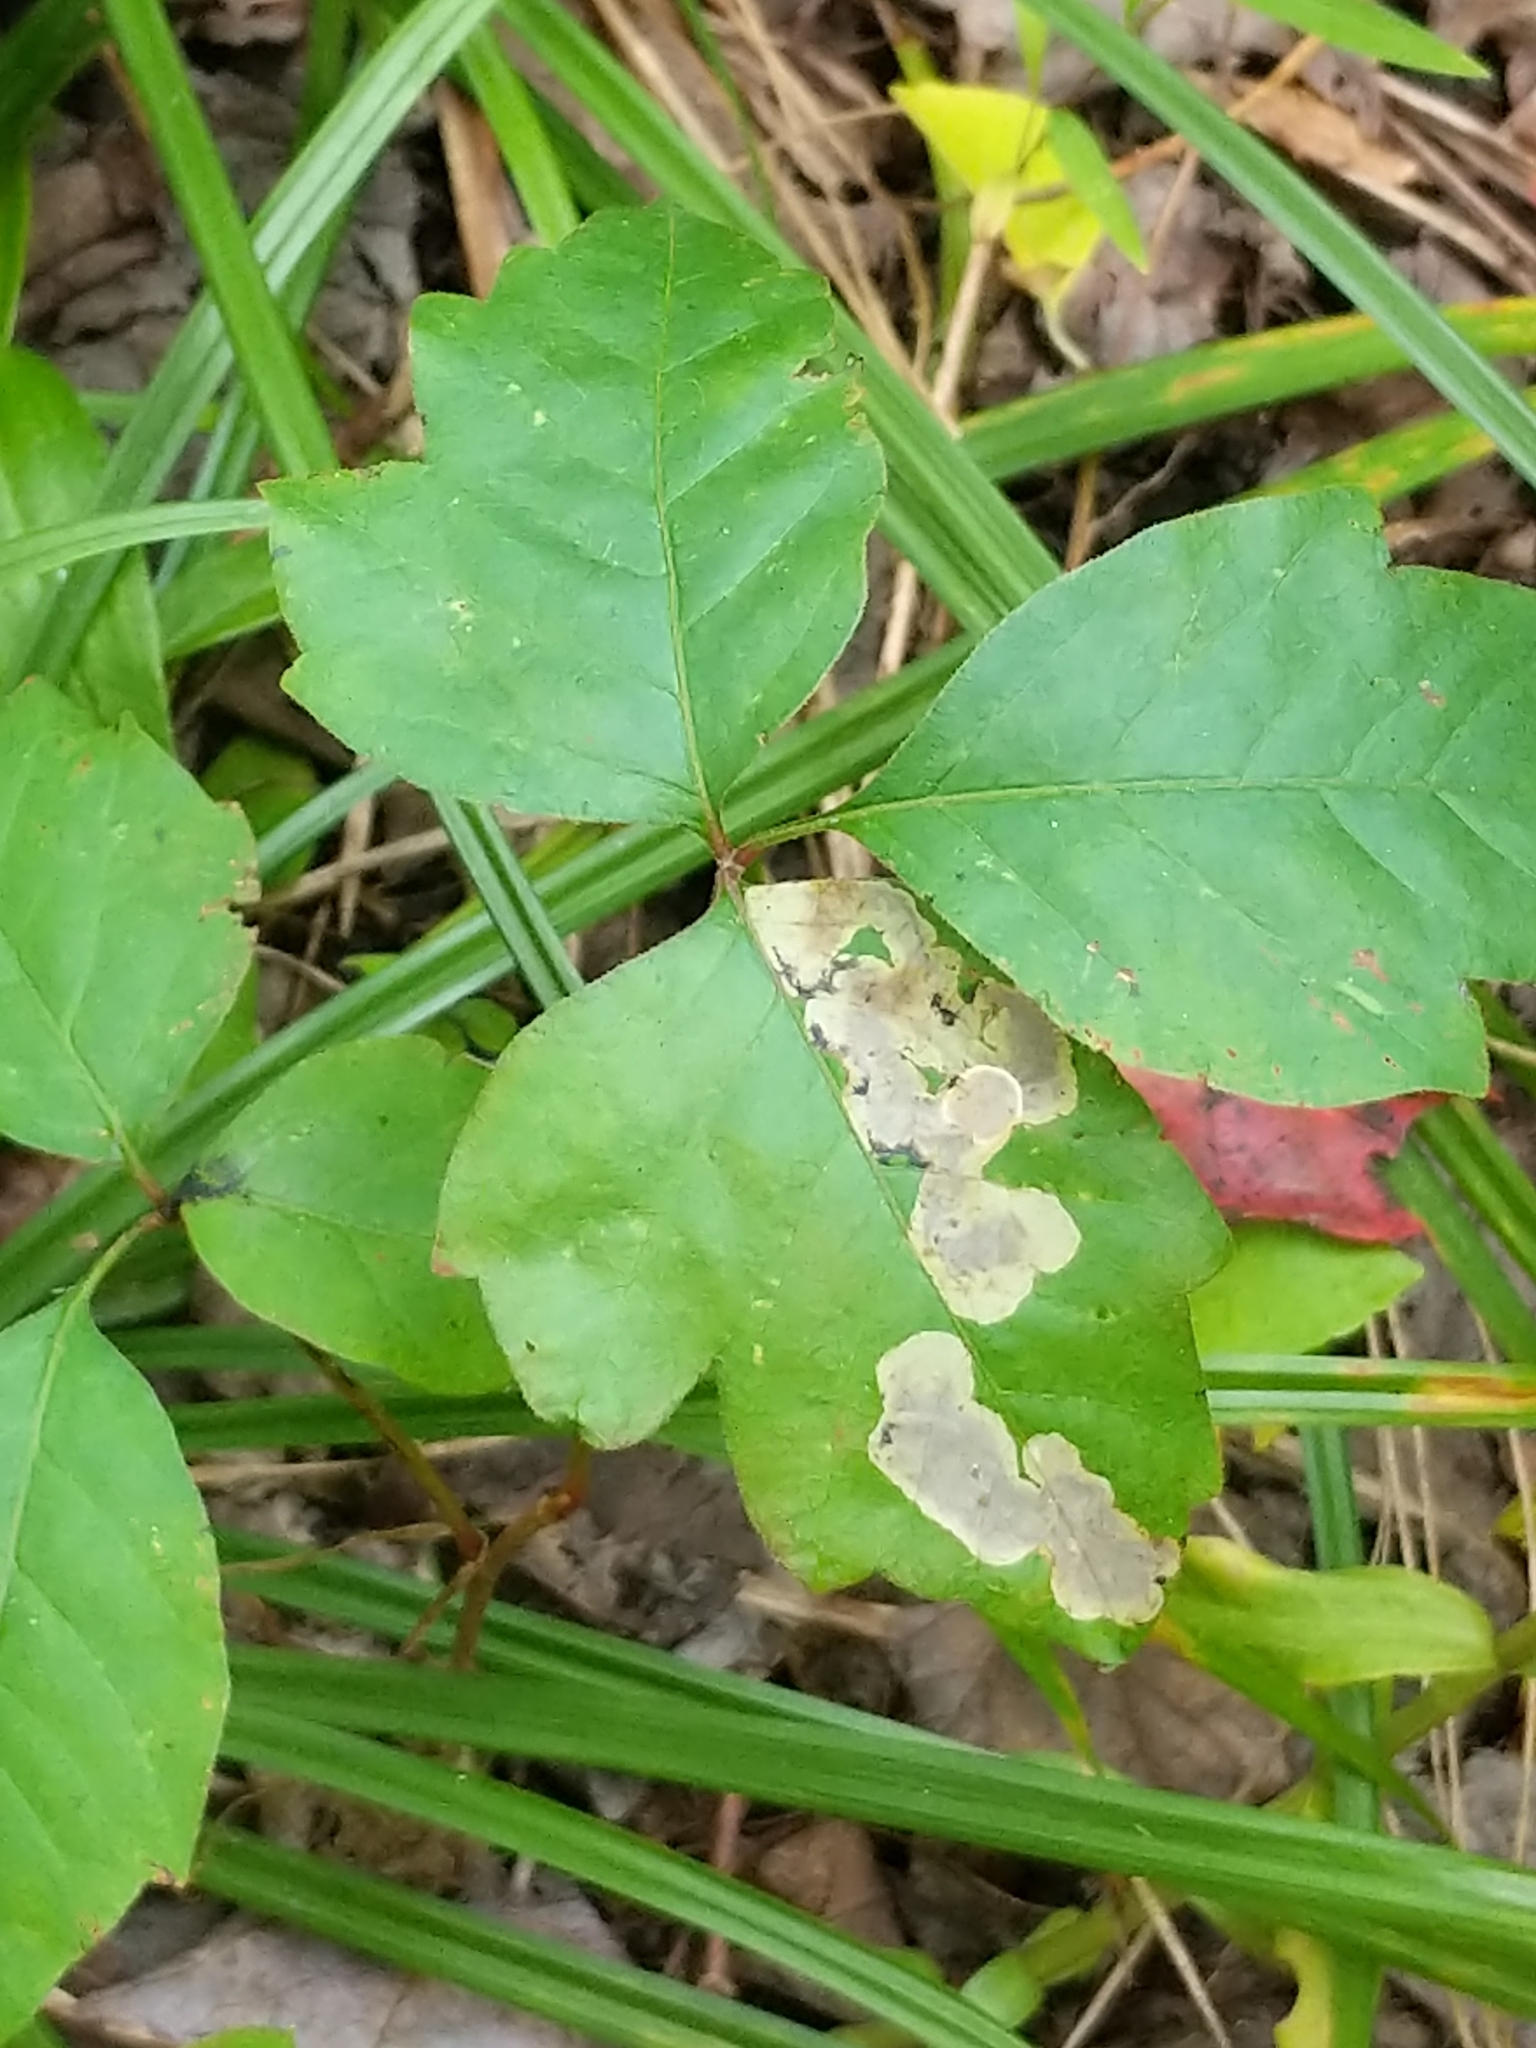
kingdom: Animalia
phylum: Arthropoda
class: Insecta
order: Lepidoptera
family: Gracillariidae
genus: Cameraria
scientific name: Cameraria guttifinitella
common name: Poison ivy leaf-miner moth
